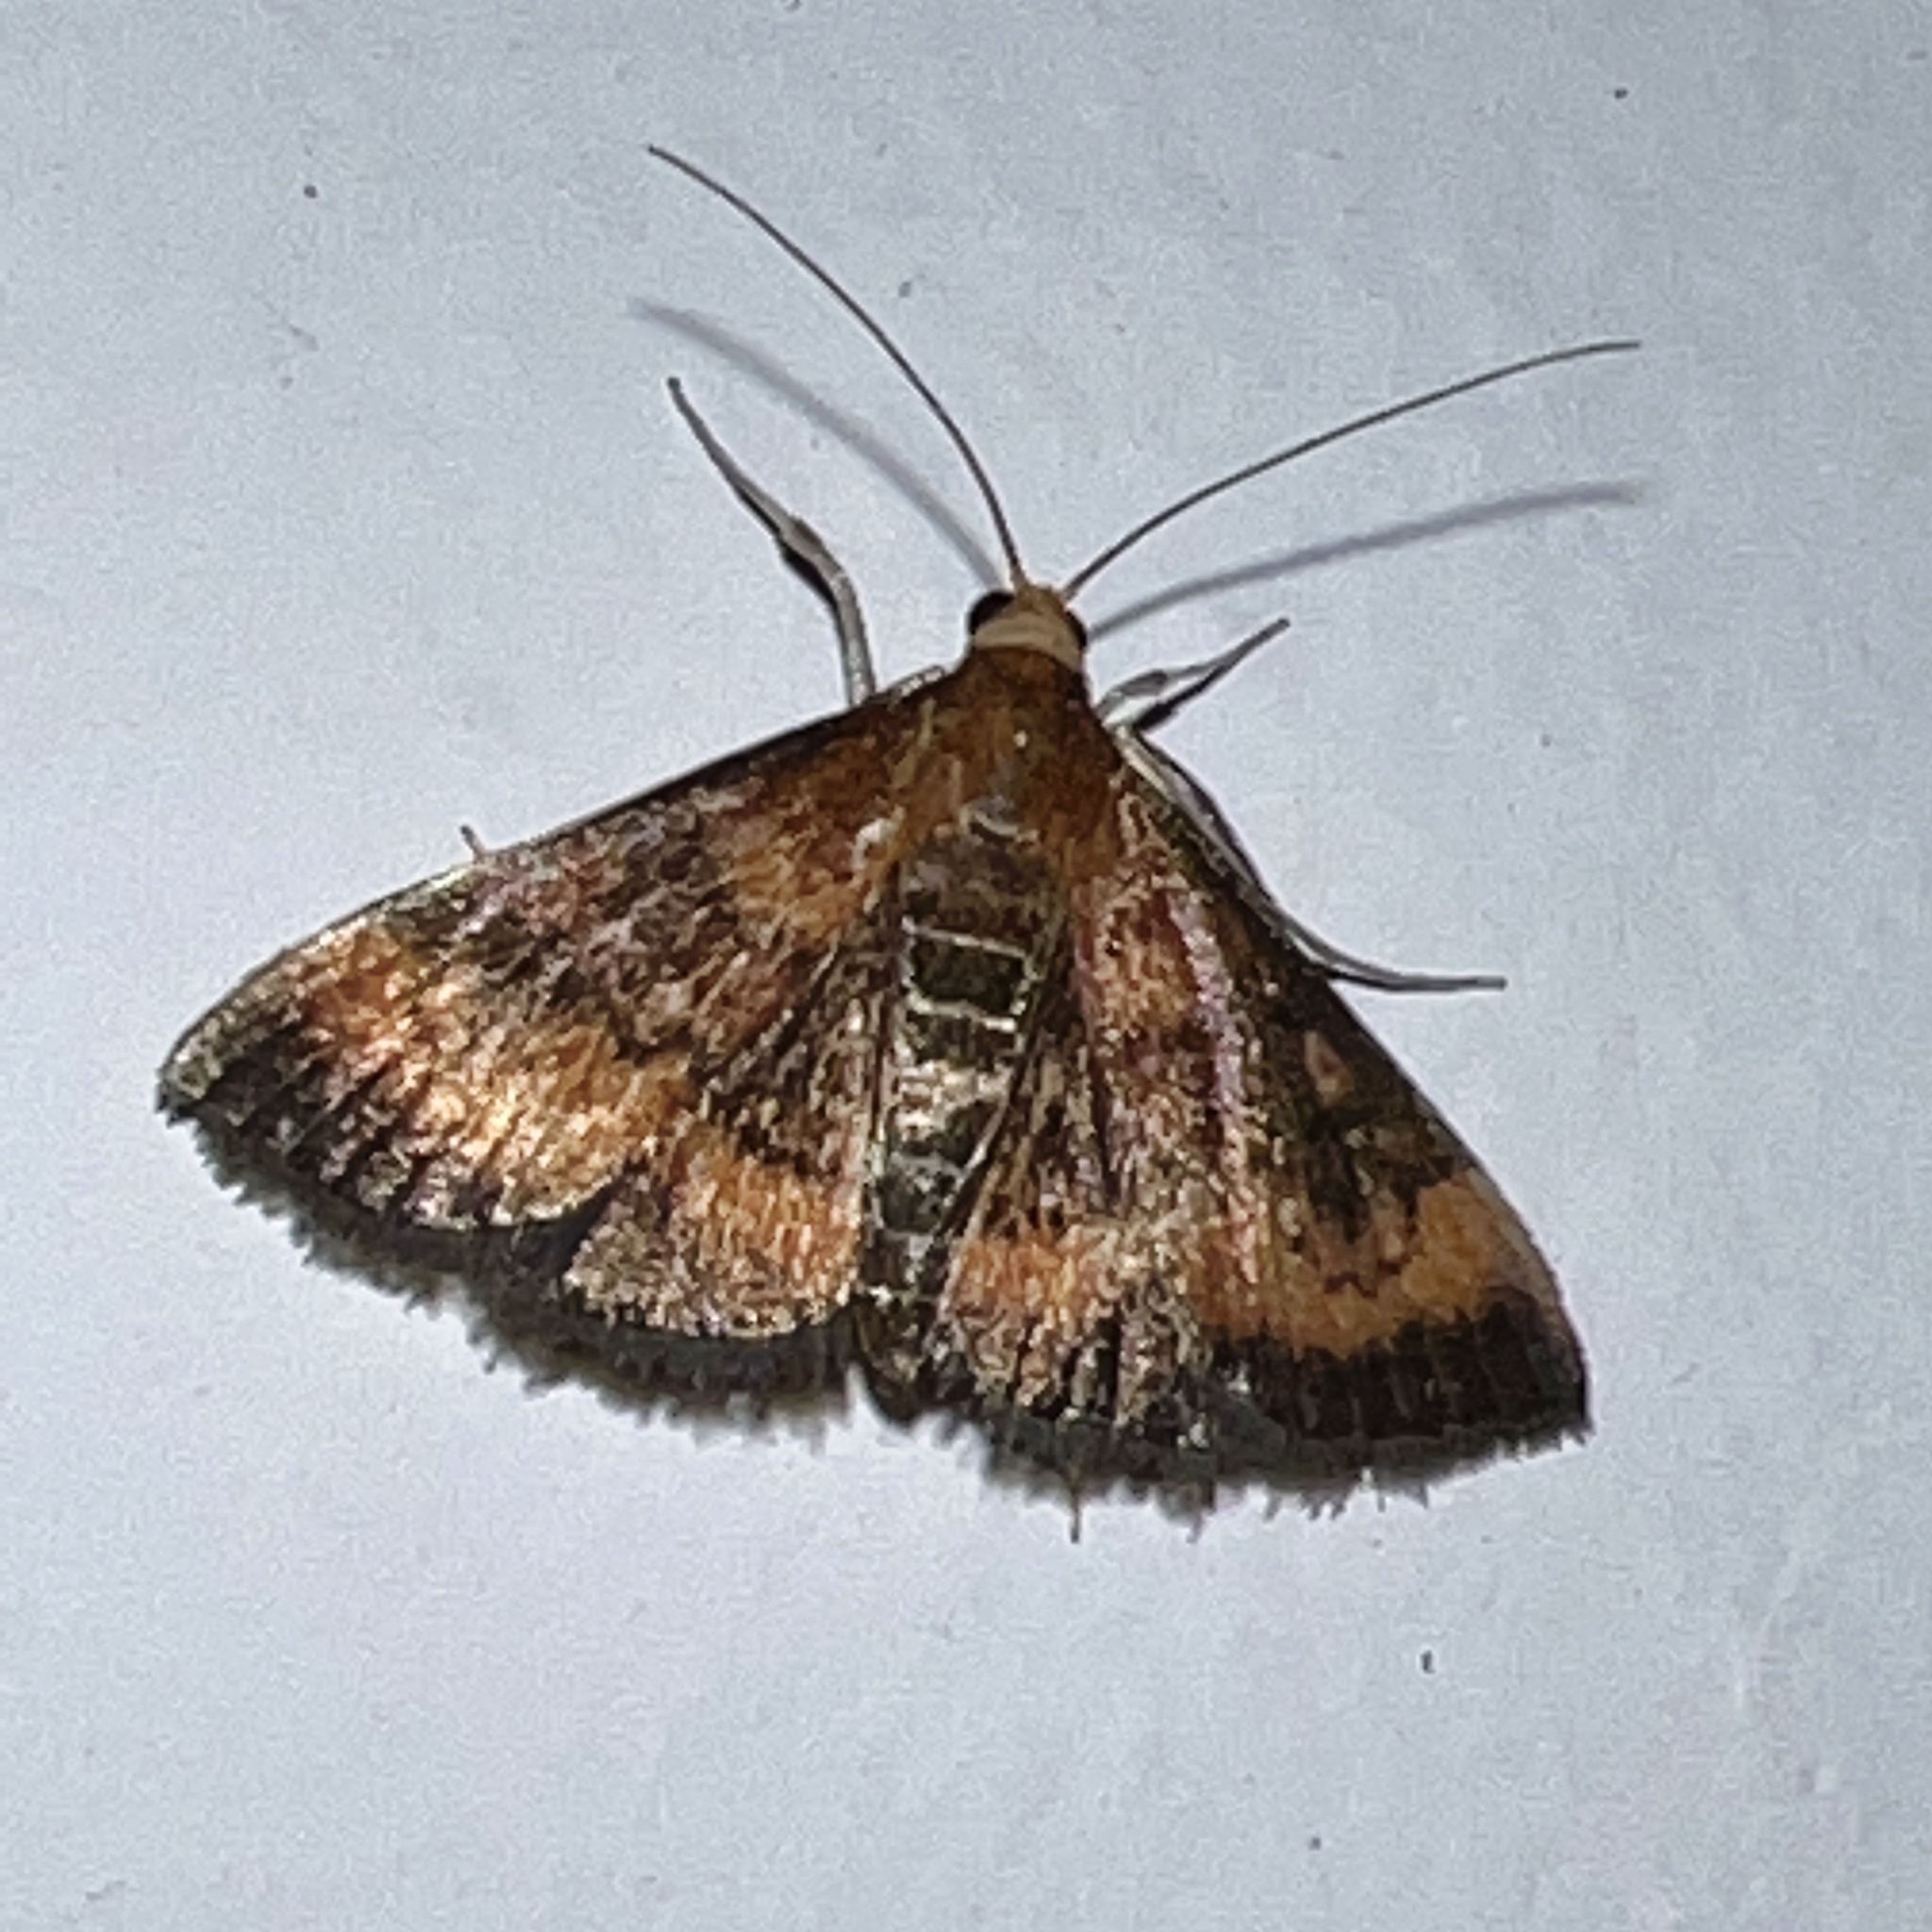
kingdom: Animalia
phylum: Arthropoda
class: Insecta
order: Lepidoptera
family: Crambidae
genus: Pyrausta
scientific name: Pyrausta rubricalis
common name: Variable reddish pyrausta
